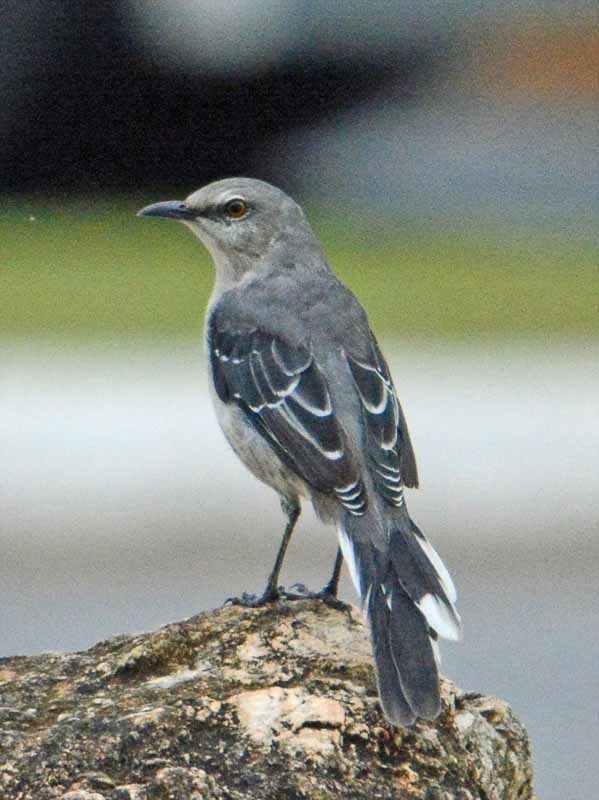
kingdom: Animalia
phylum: Chordata
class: Aves
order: Passeriformes
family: Mimidae
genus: Mimus
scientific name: Mimus gilvus
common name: Tropical mockingbird
